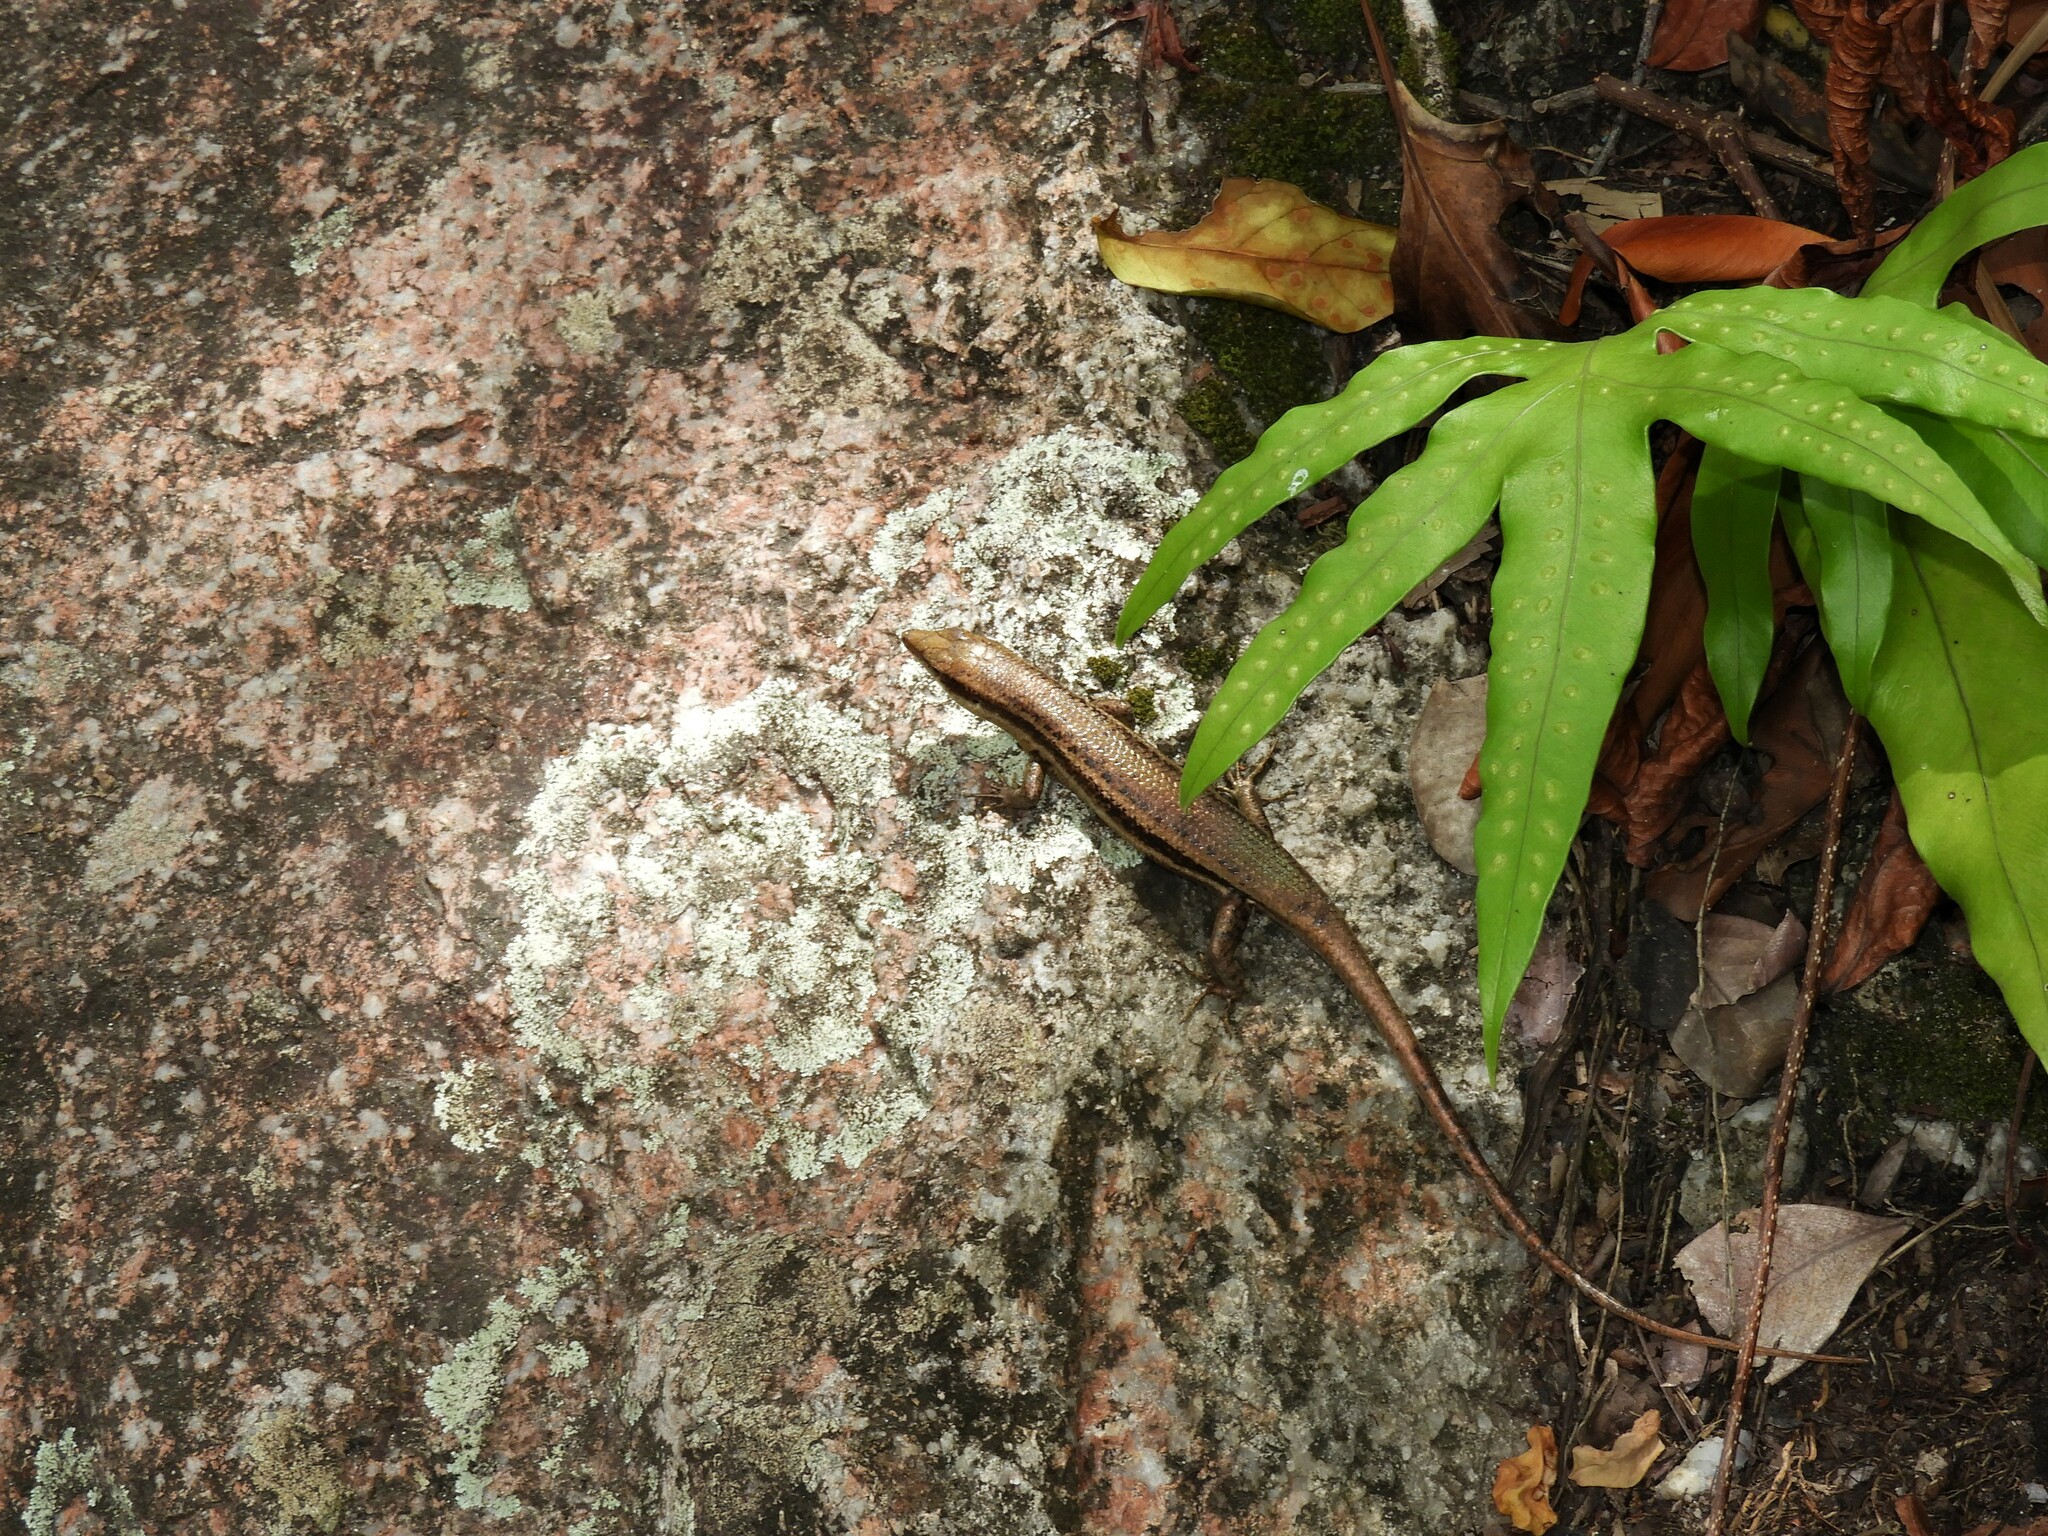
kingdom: Animalia
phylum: Chordata
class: Squamata
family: Scincidae
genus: Trachylepis
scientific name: Trachylepis sechellensis
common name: Seychelles skink
